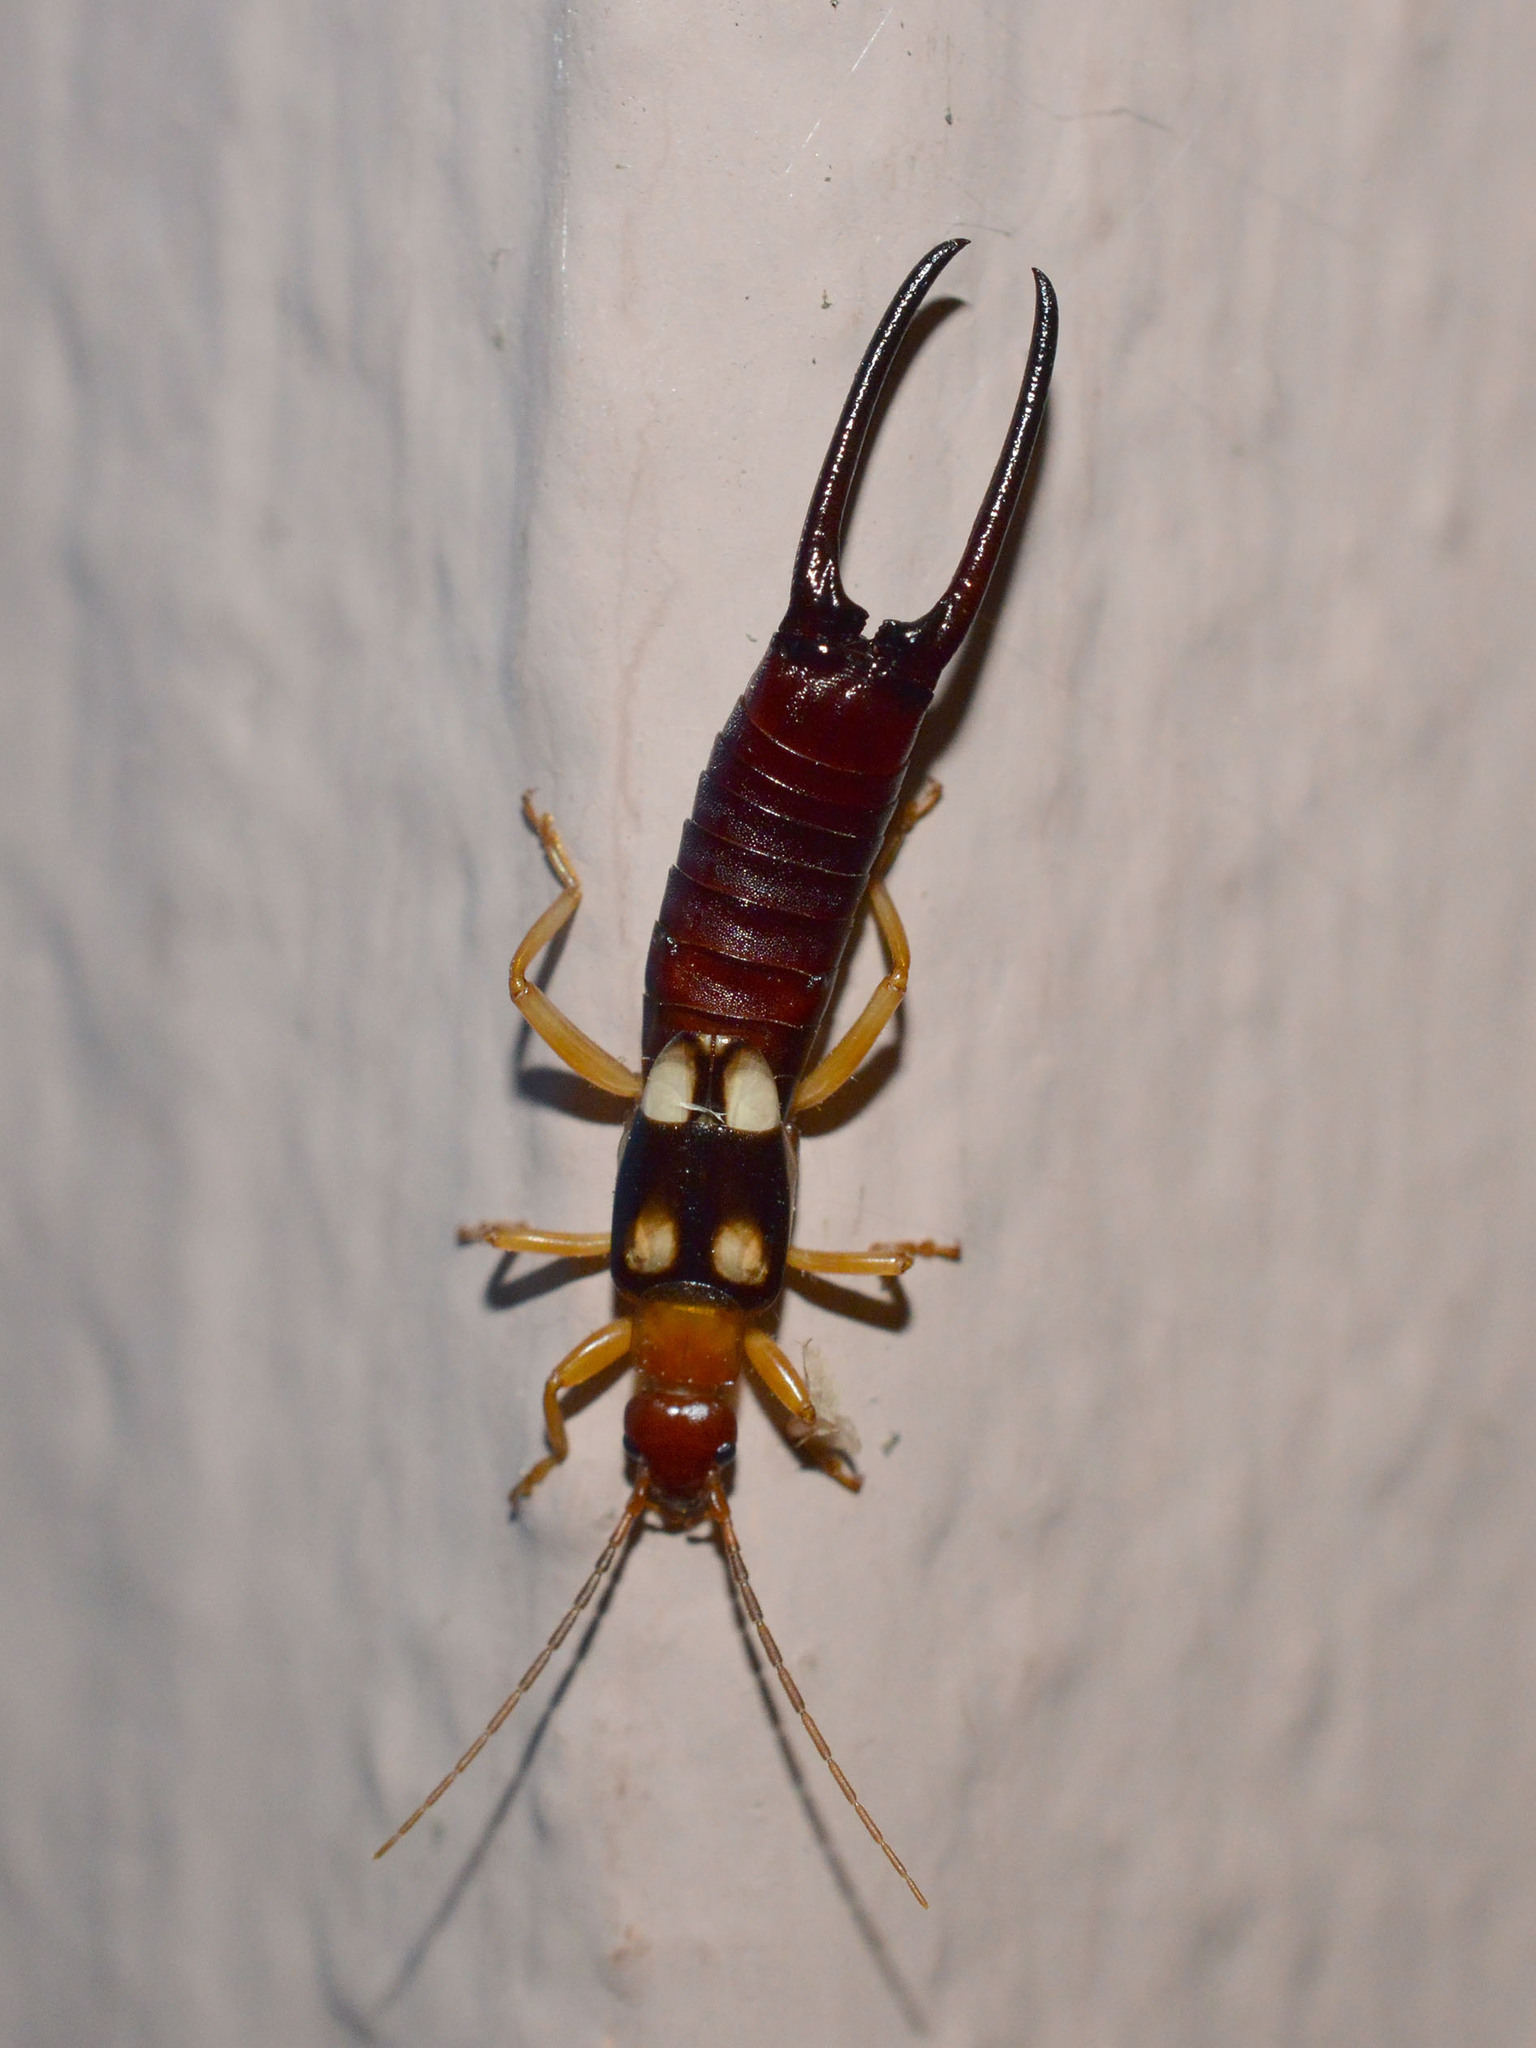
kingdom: Animalia
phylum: Arthropoda
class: Insecta
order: Dermaptera
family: Forficulidae
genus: Forficula
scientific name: Forficula smyrnensis
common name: Smyrna earwig
